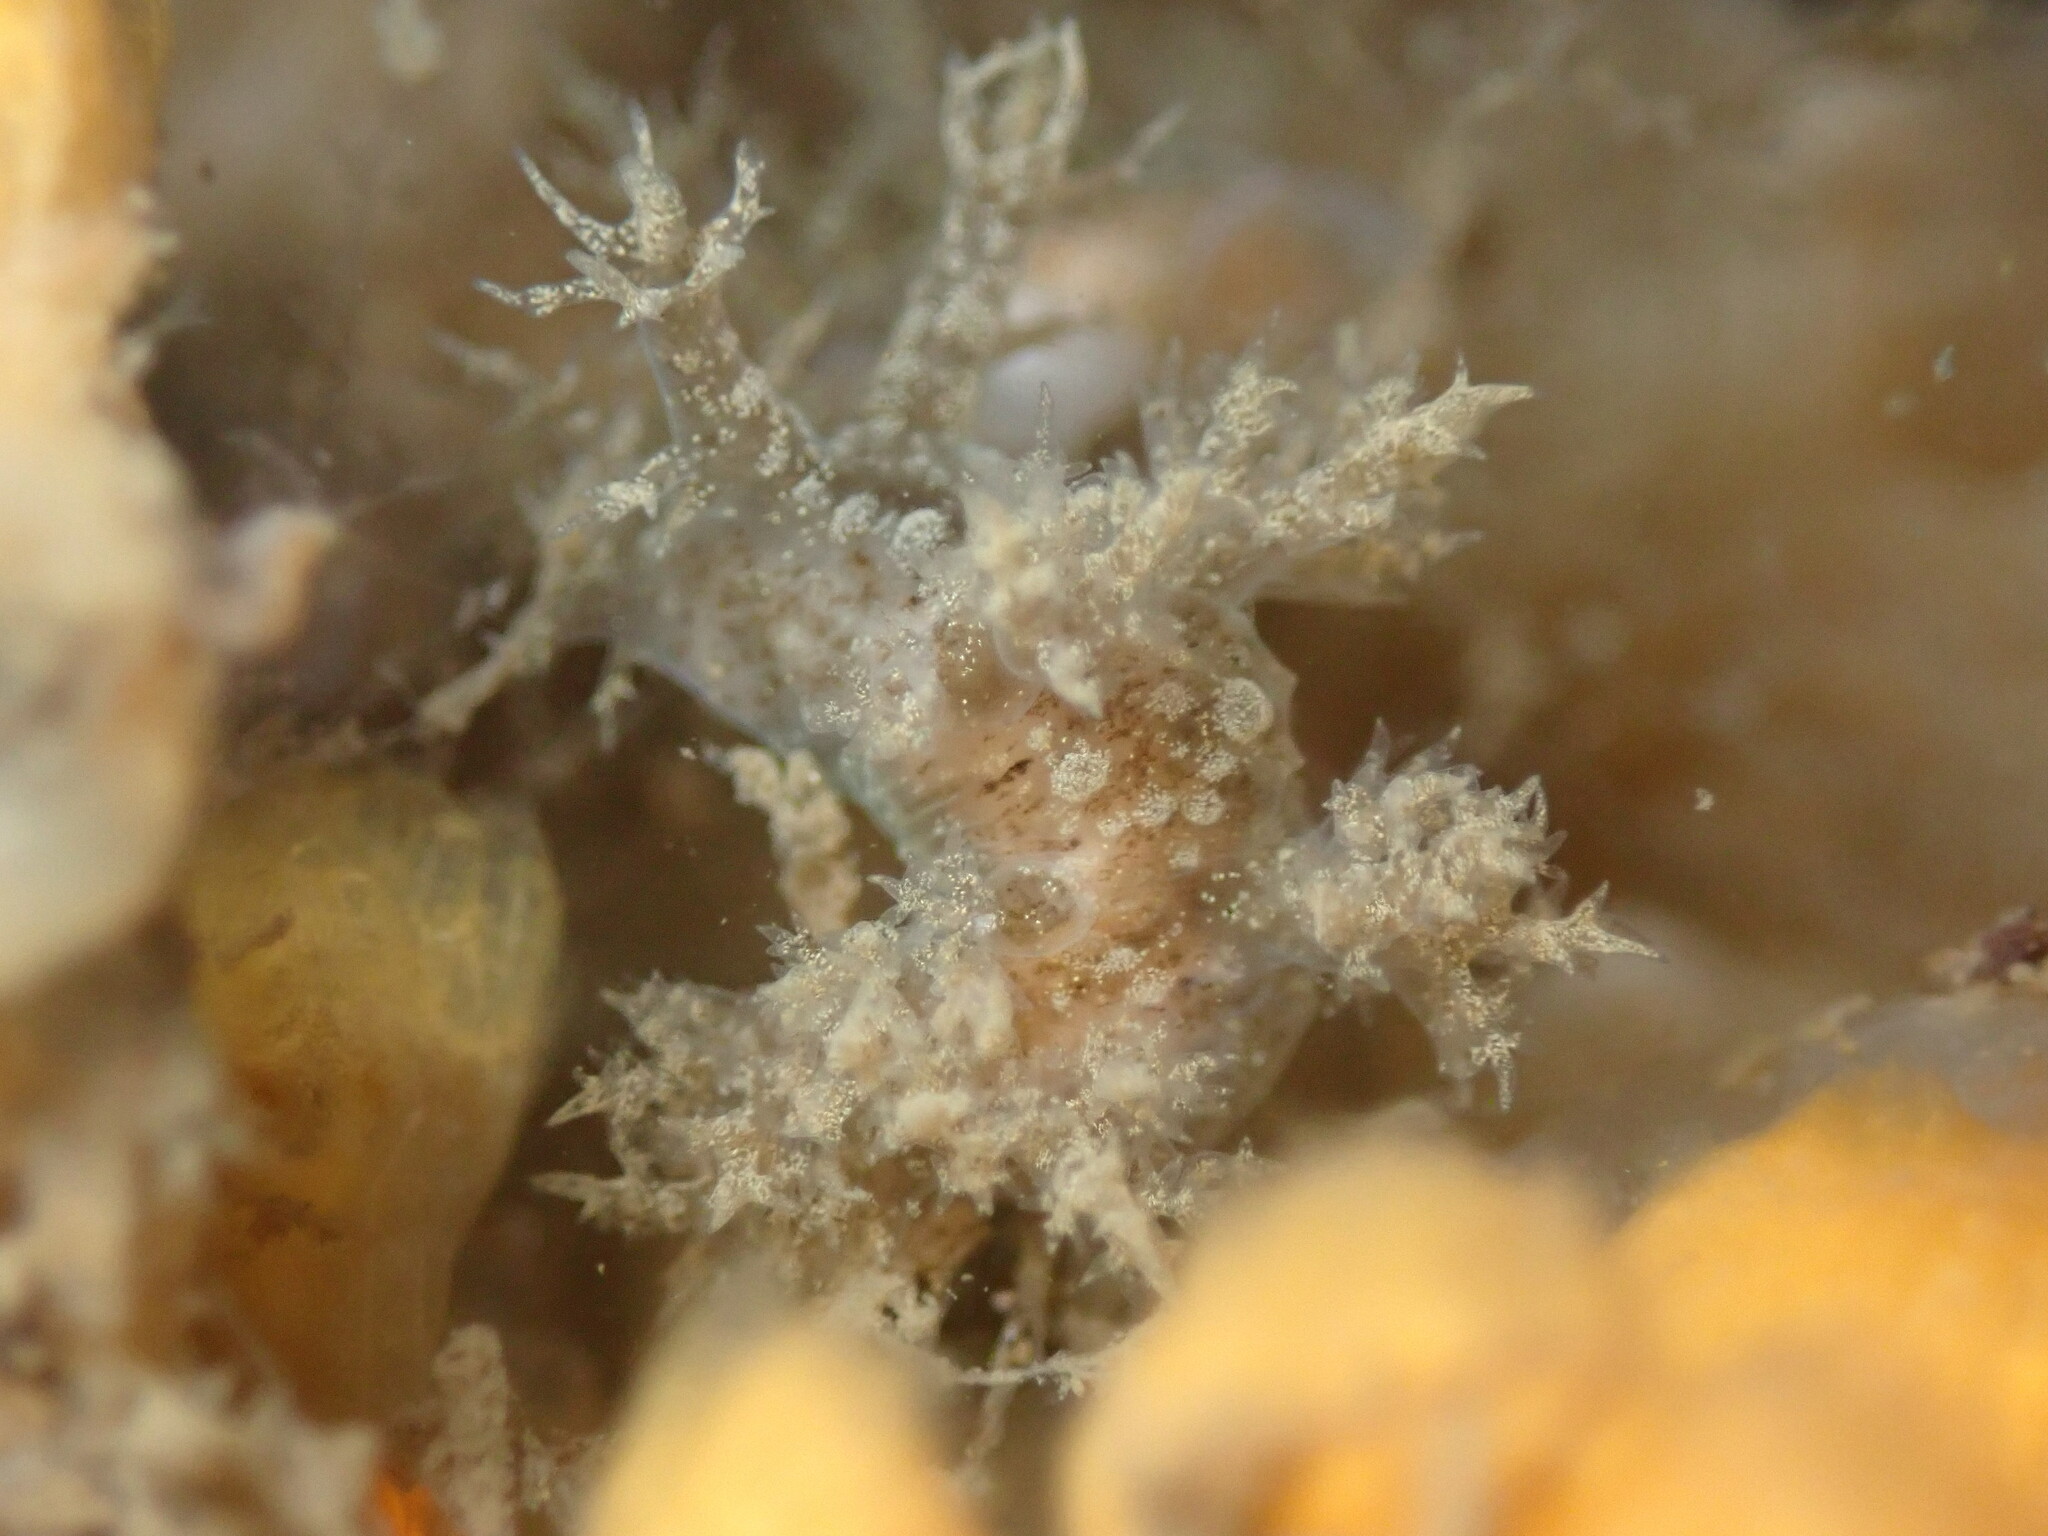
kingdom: Animalia
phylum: Mollusca
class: Gastropoda
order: Nudibranchia
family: Dendronotidae
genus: Dendronotus
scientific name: Dendronotus venustus
